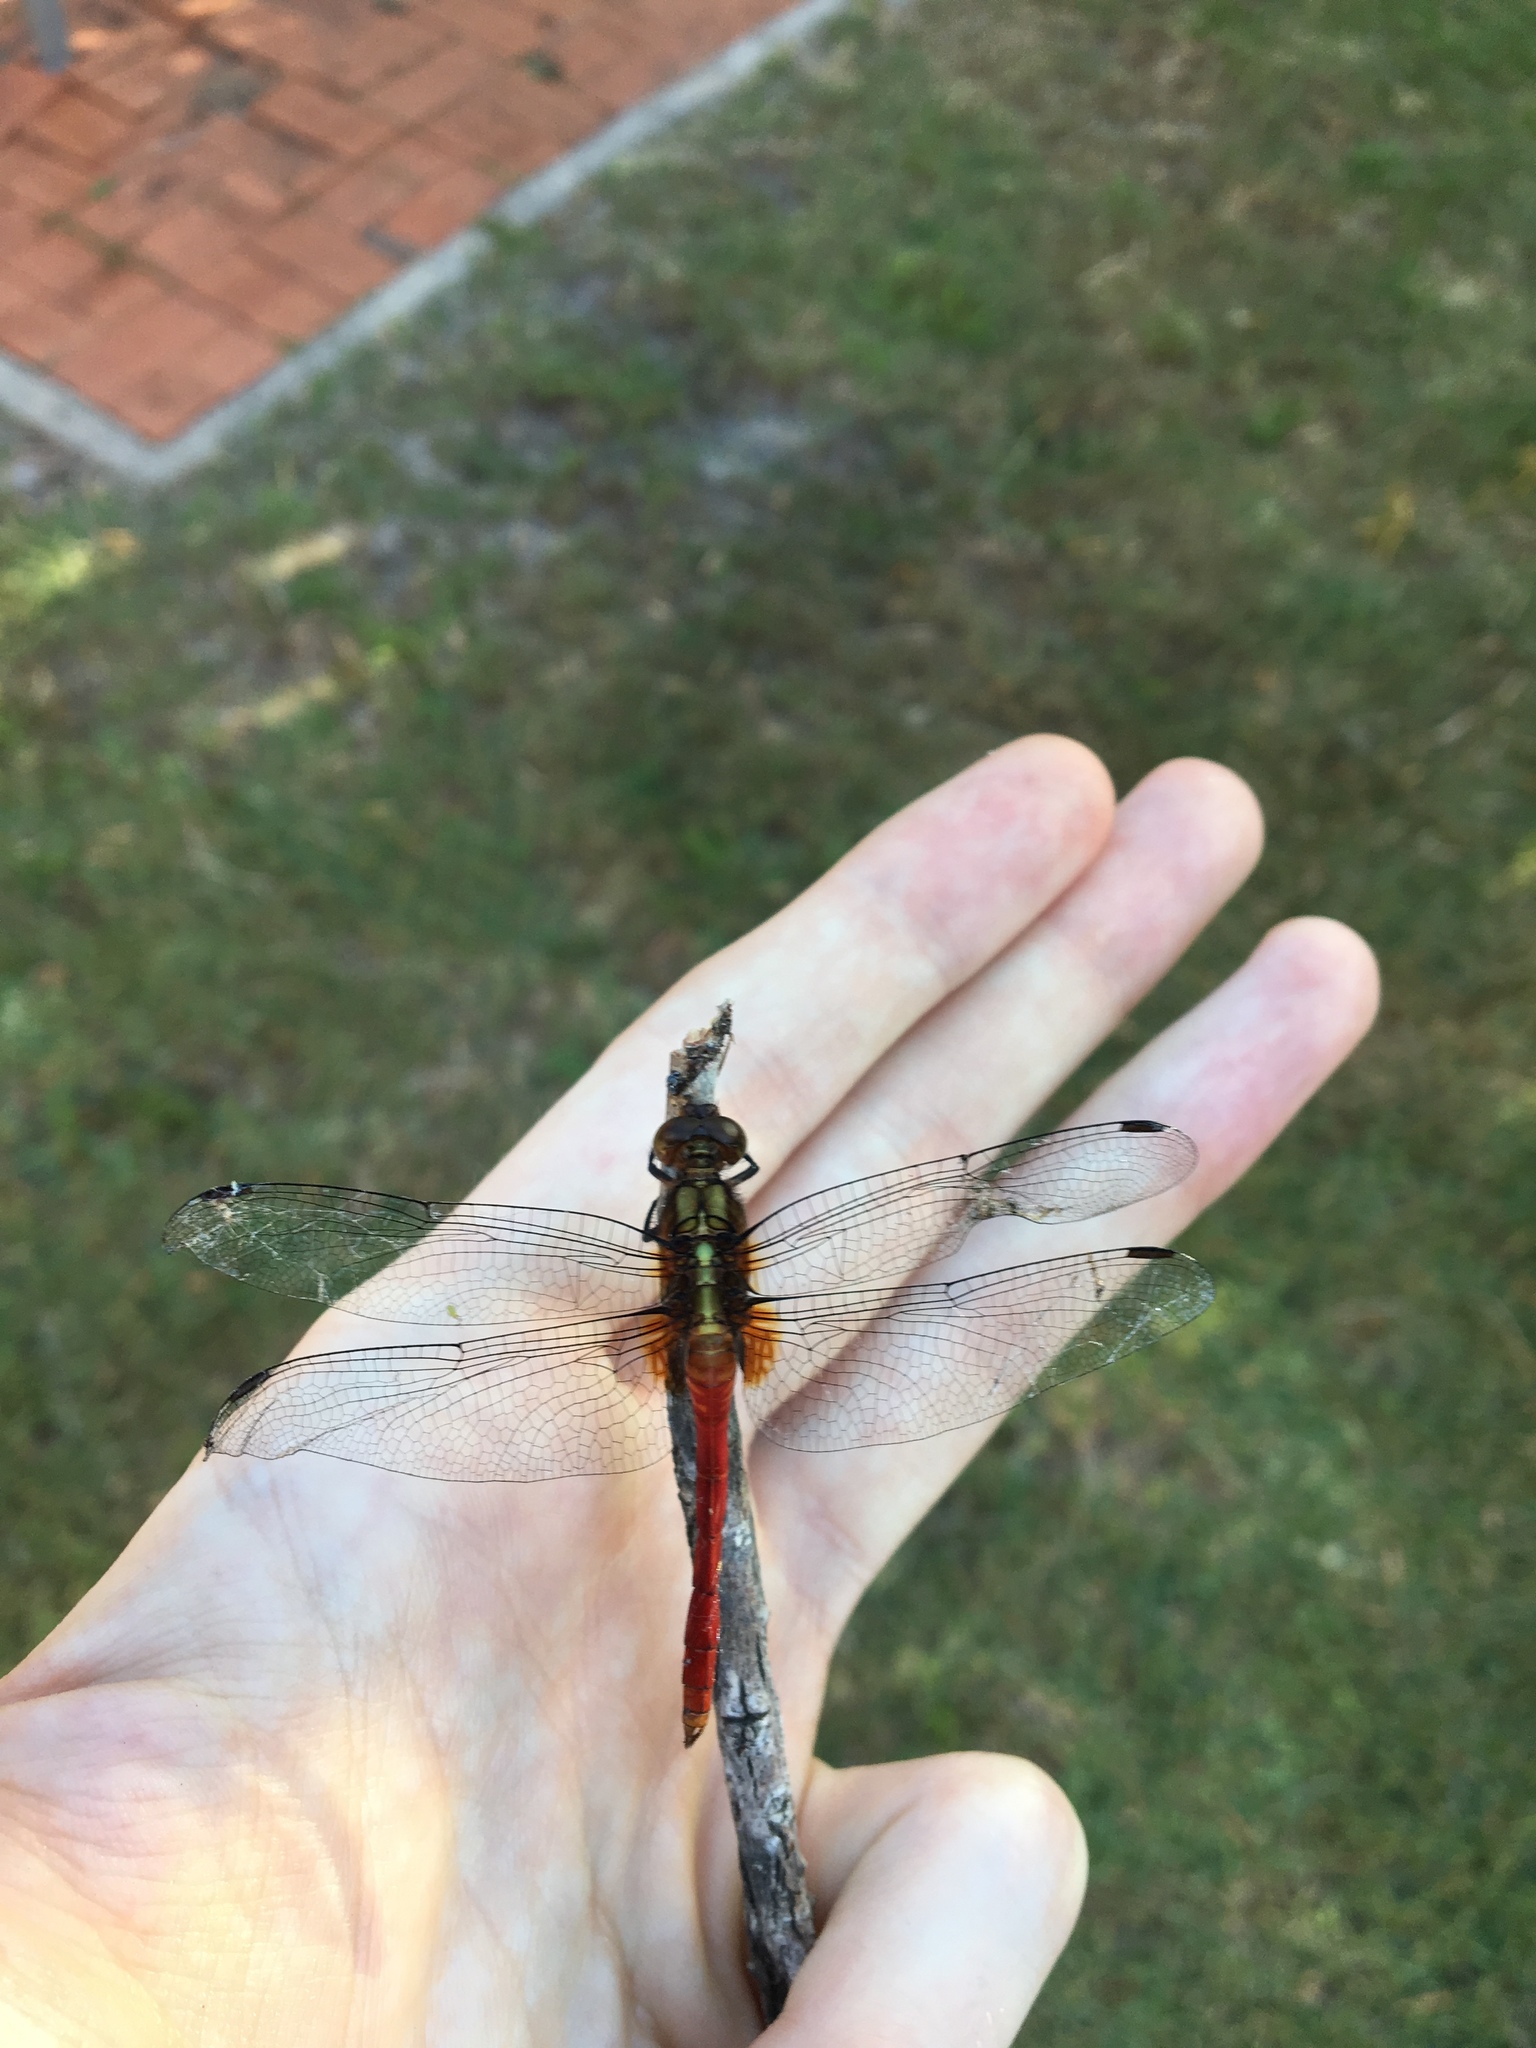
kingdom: Animalia
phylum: Arthropoda
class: Insecta
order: Odonata
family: Libellulidae
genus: Orthetrum
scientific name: Orthetrum villosovittatum
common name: Firery skimmer
